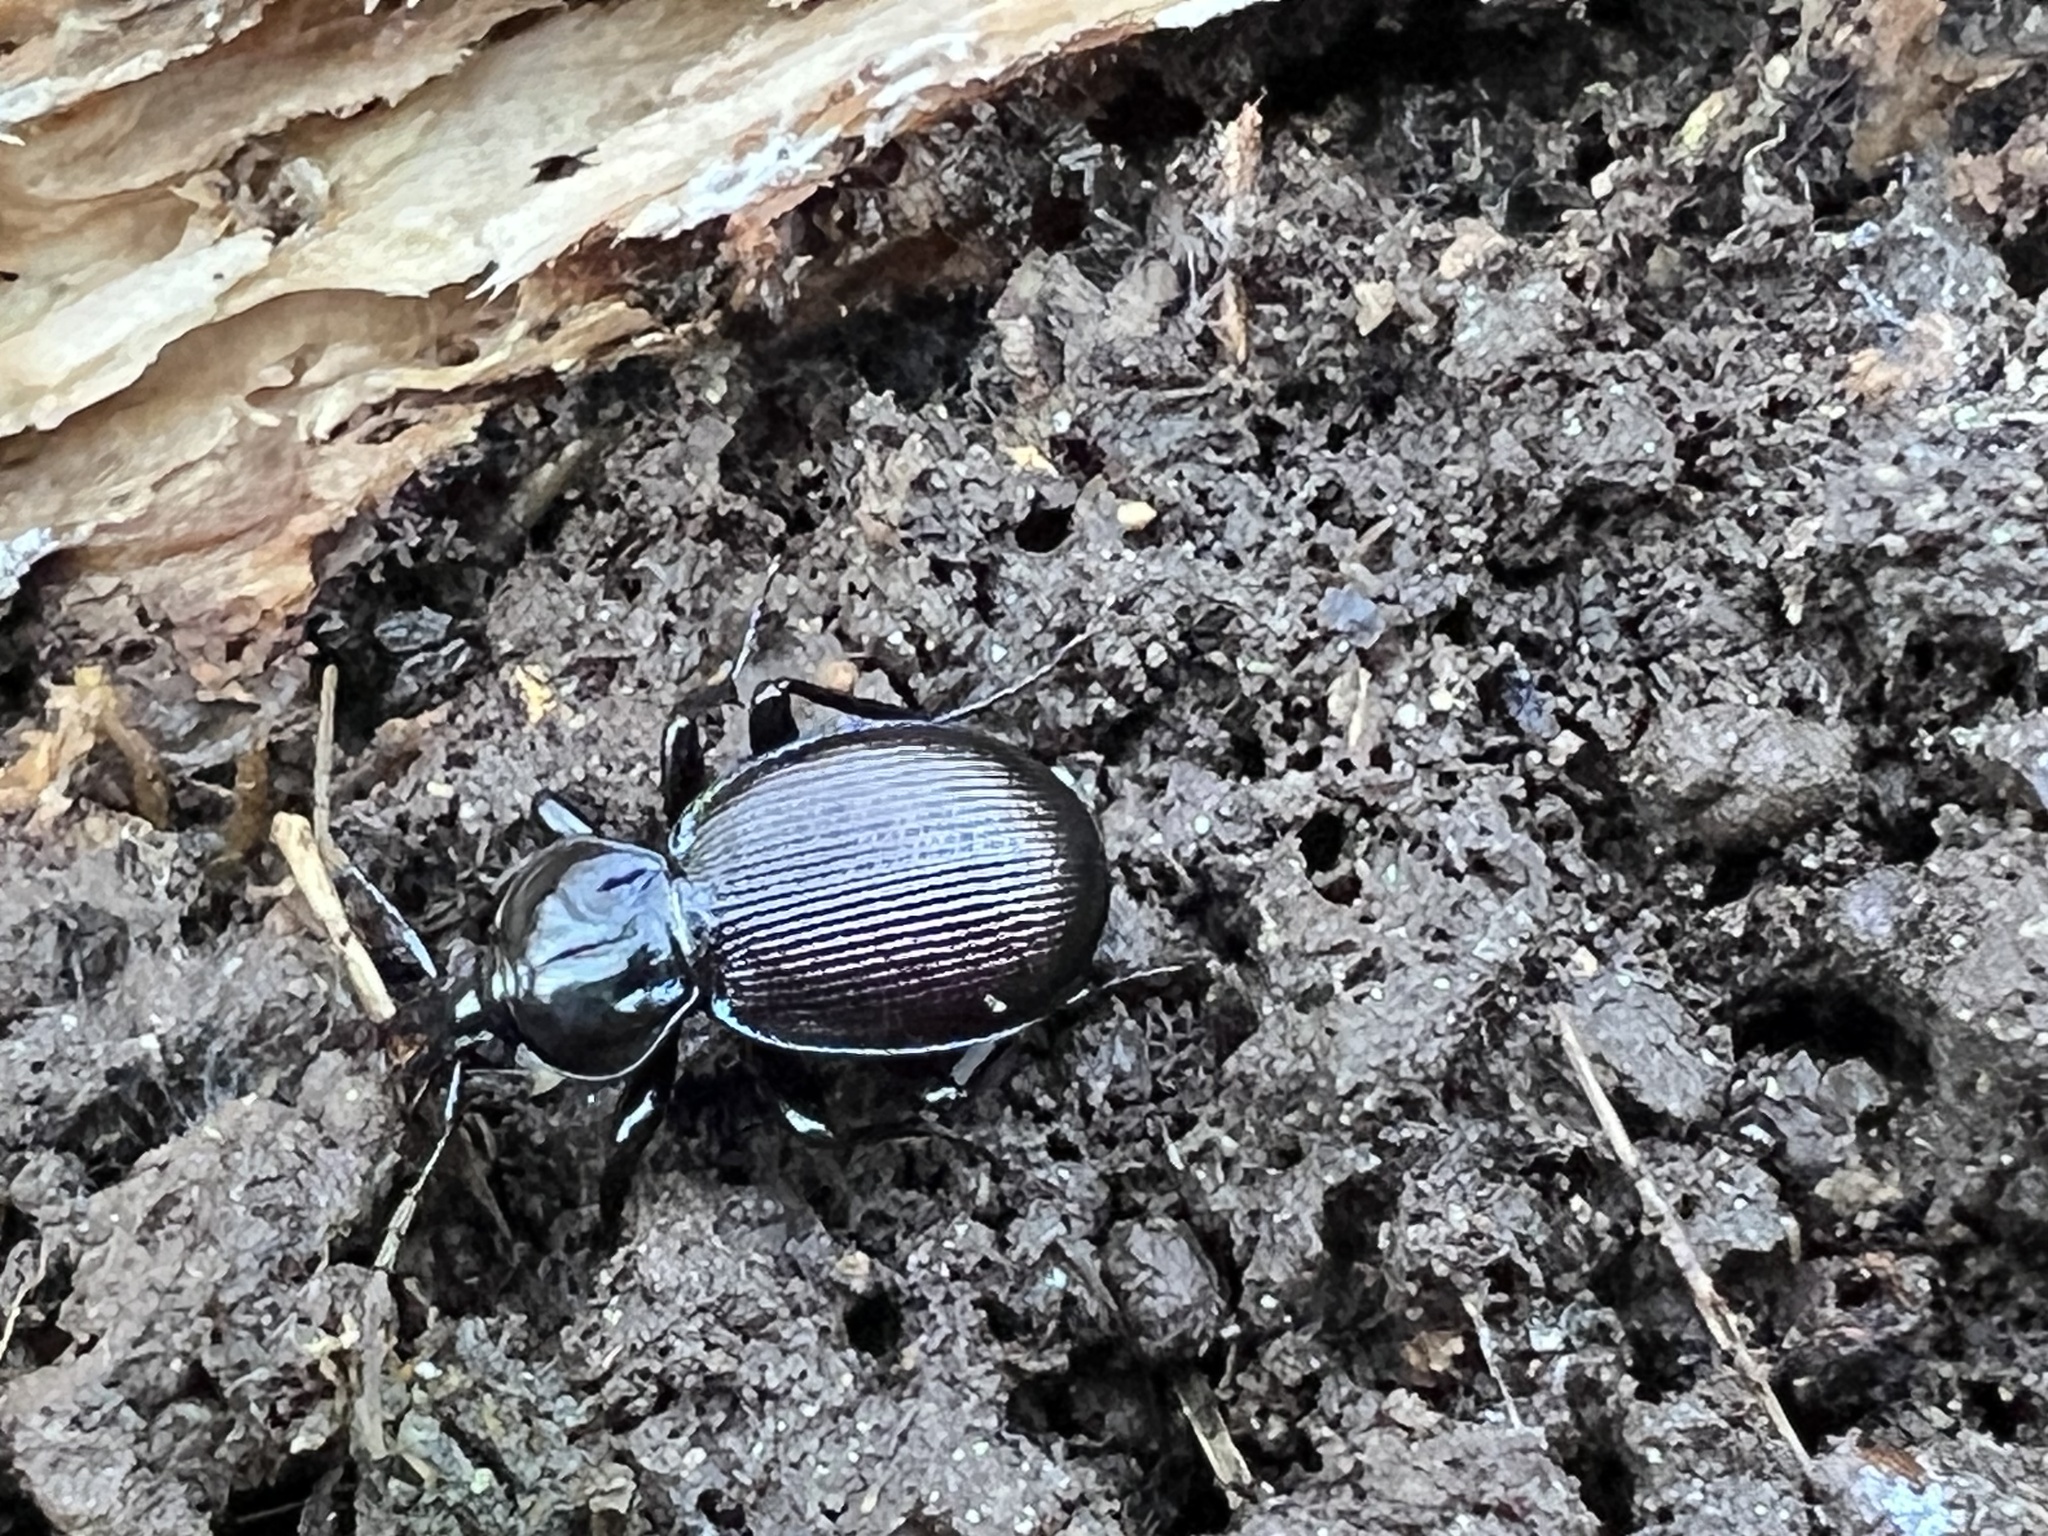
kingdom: Animalia
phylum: Arthropoda
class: Insecta
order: Coleoptera
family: Carabidae
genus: Sphaeroderus
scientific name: Sphaeroderus stenostomus
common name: Small snail-eating ground beetle
